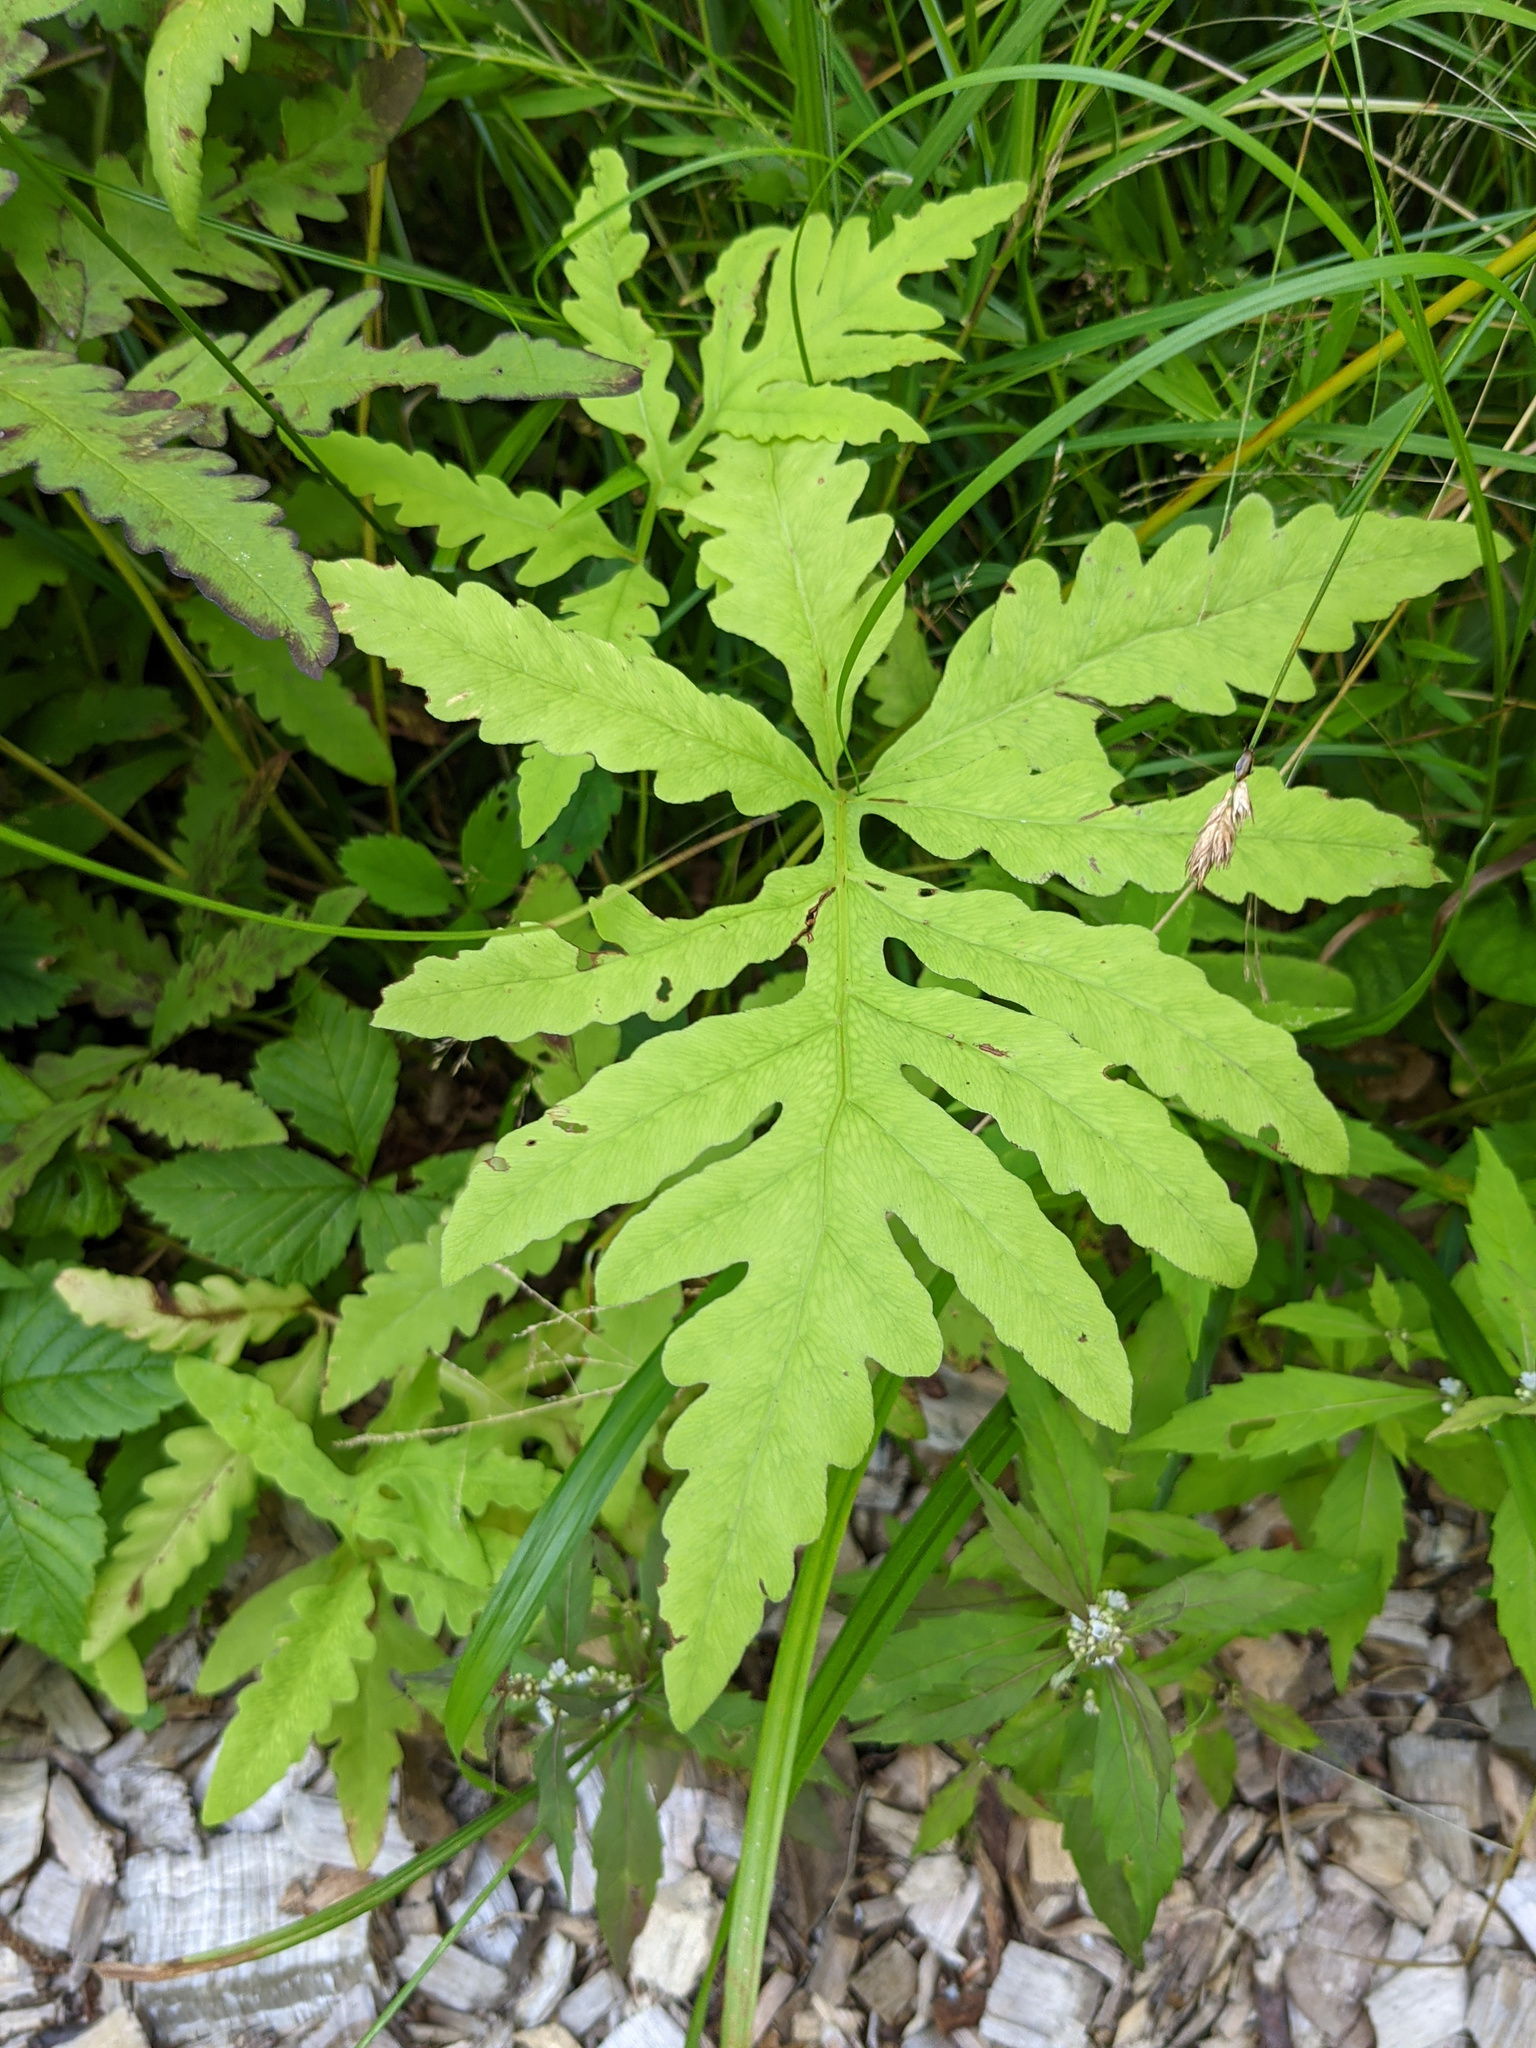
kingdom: Plantae
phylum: Tracheophyta
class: Polypodiopsida
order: Polypodiales
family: Onocleaceae
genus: Onoclea
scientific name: Onoclea sensibilis
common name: Sensitive fern
